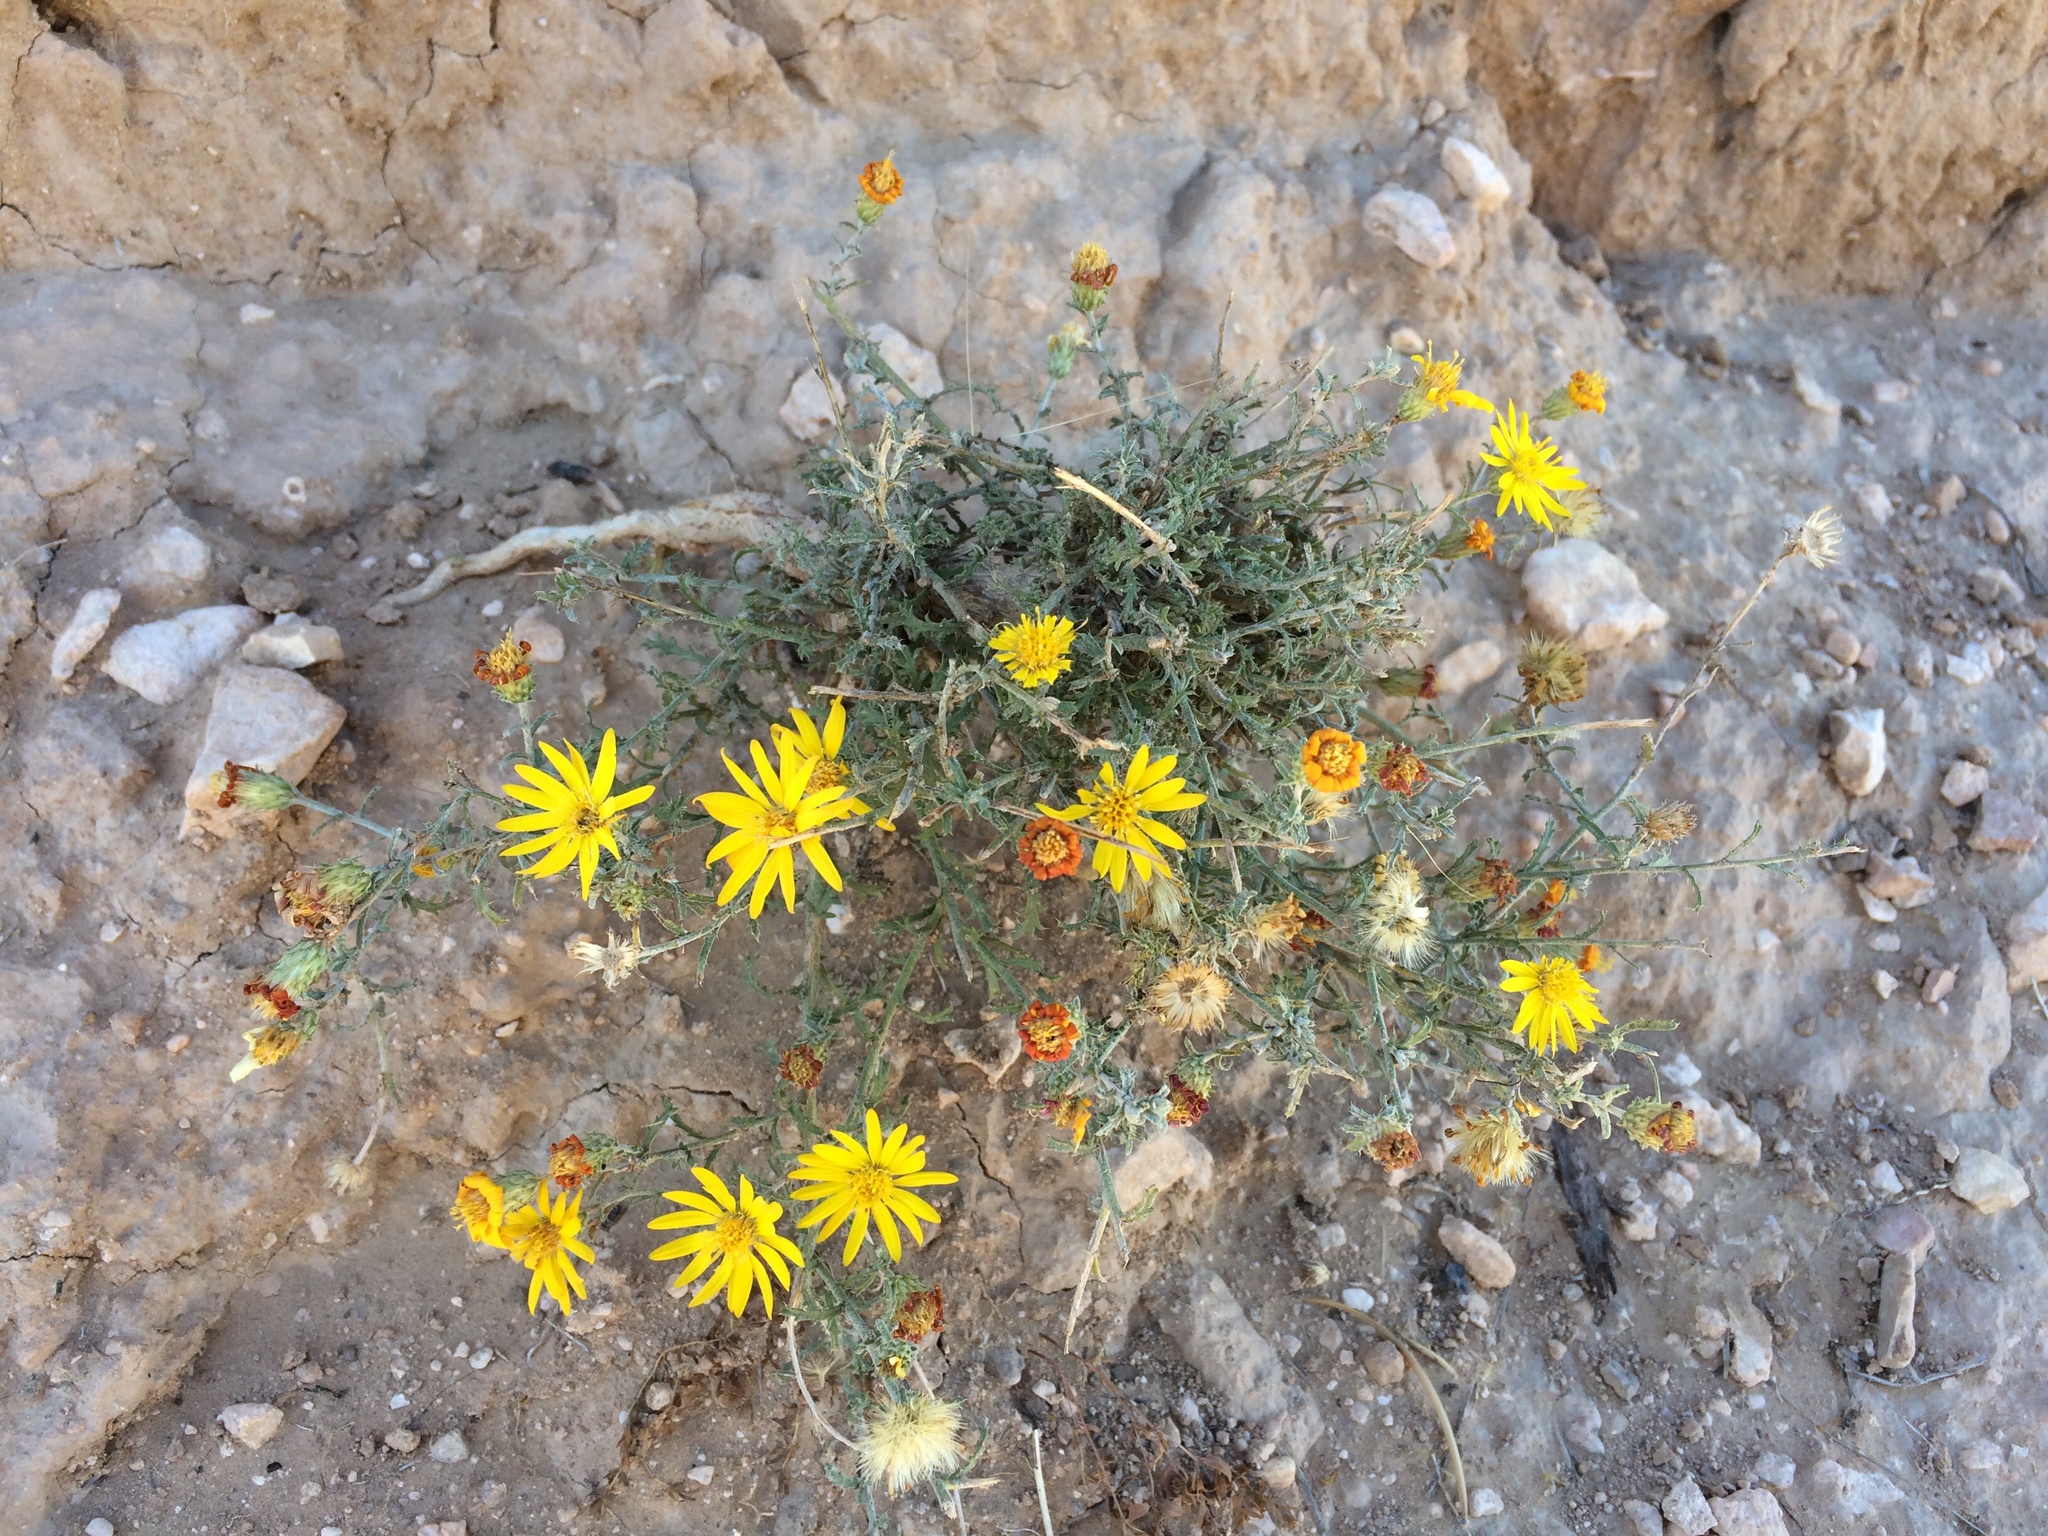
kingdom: Plantae
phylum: Tracheophyta
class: Magnoliopsida
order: Asterales
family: Asteraceae
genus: Xanthisma
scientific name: Xanthisma spinulosum
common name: Spiny goldenweed
